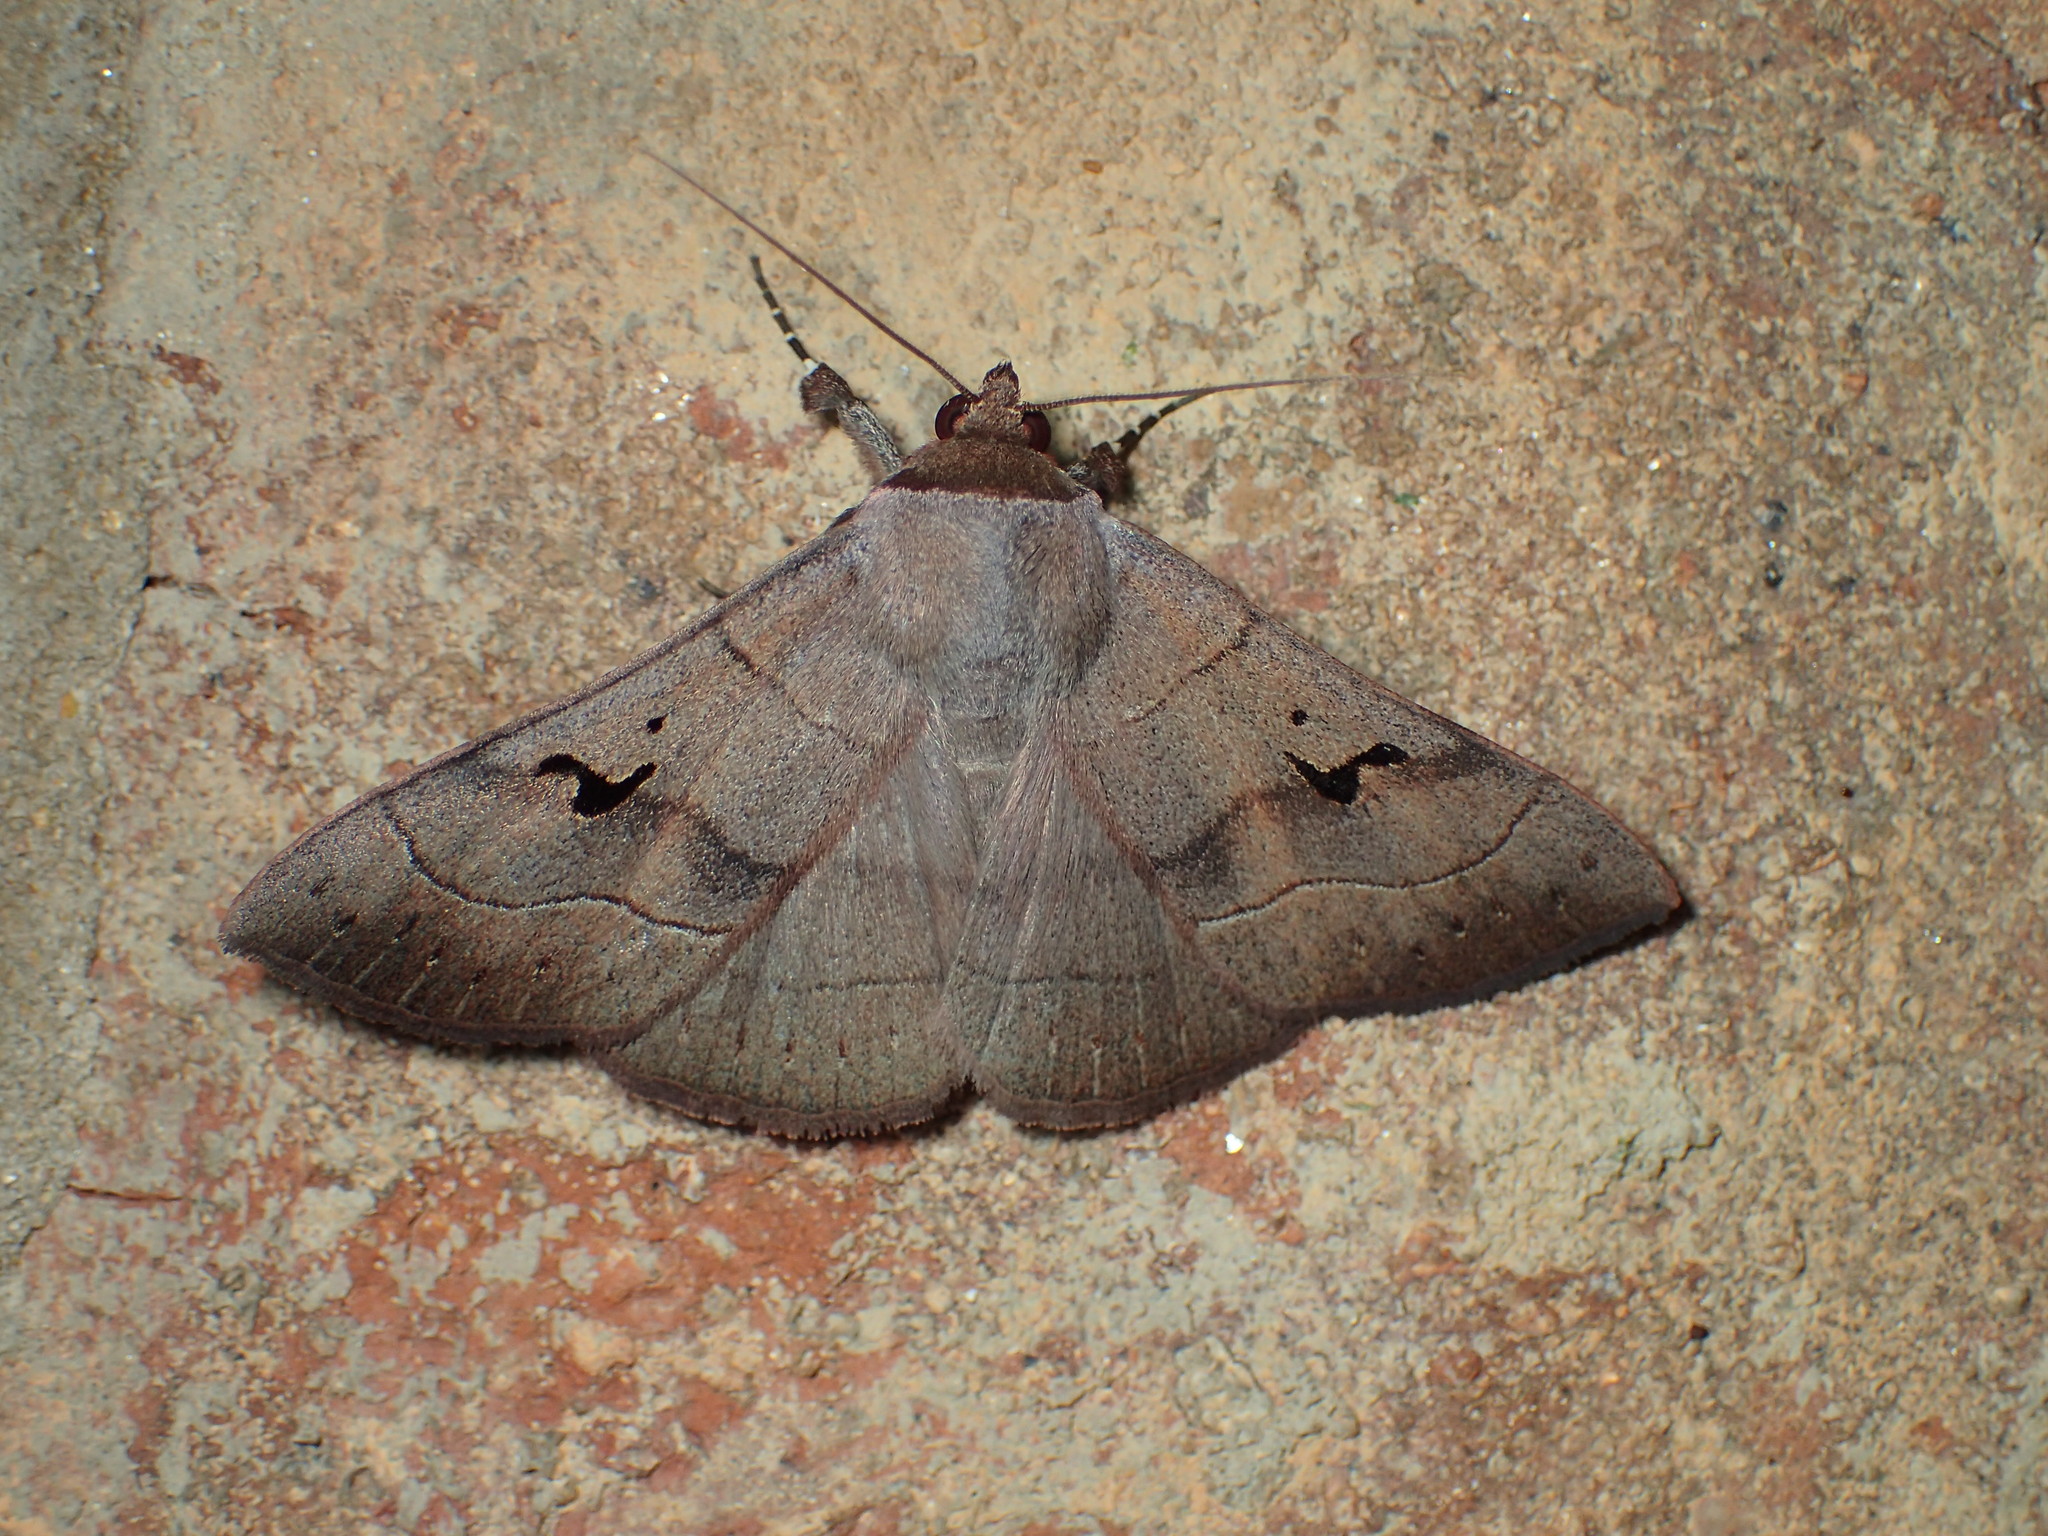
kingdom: Animalia
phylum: Arthropoda
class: Insecta
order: Lepidoptera
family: Erebidae
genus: Panopoda
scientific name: Panopoda carneicosta
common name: Brown panopoda moth
